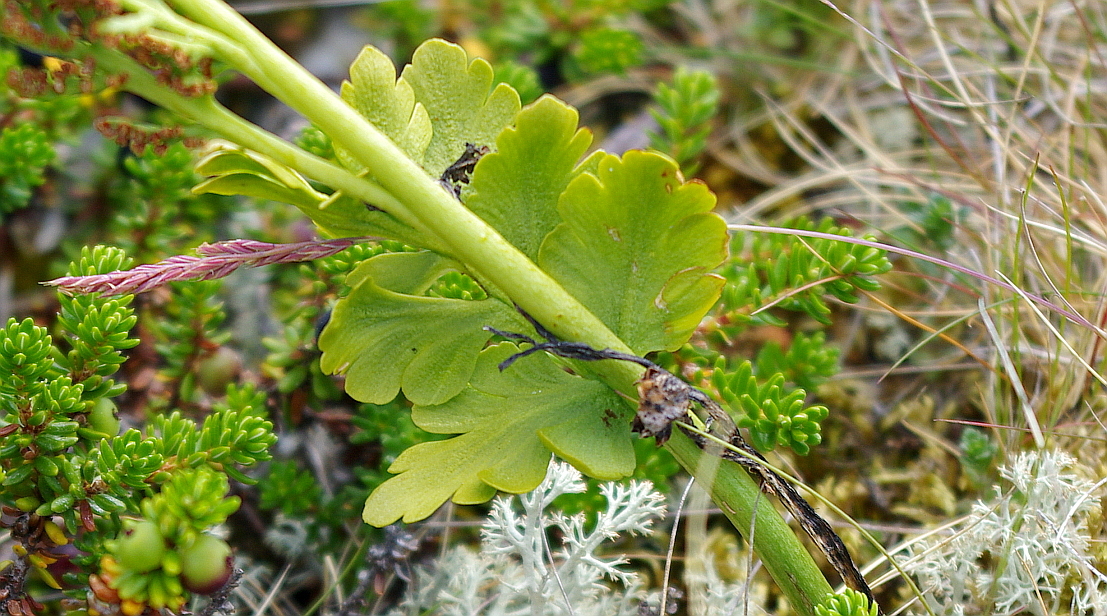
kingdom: Plantae
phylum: Tracheophyta
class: Polypodiopsida
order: Ophioglossales
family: Ophioglossaceae
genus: Botrychium
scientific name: Botrychium boreale
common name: Boreal moonwort
